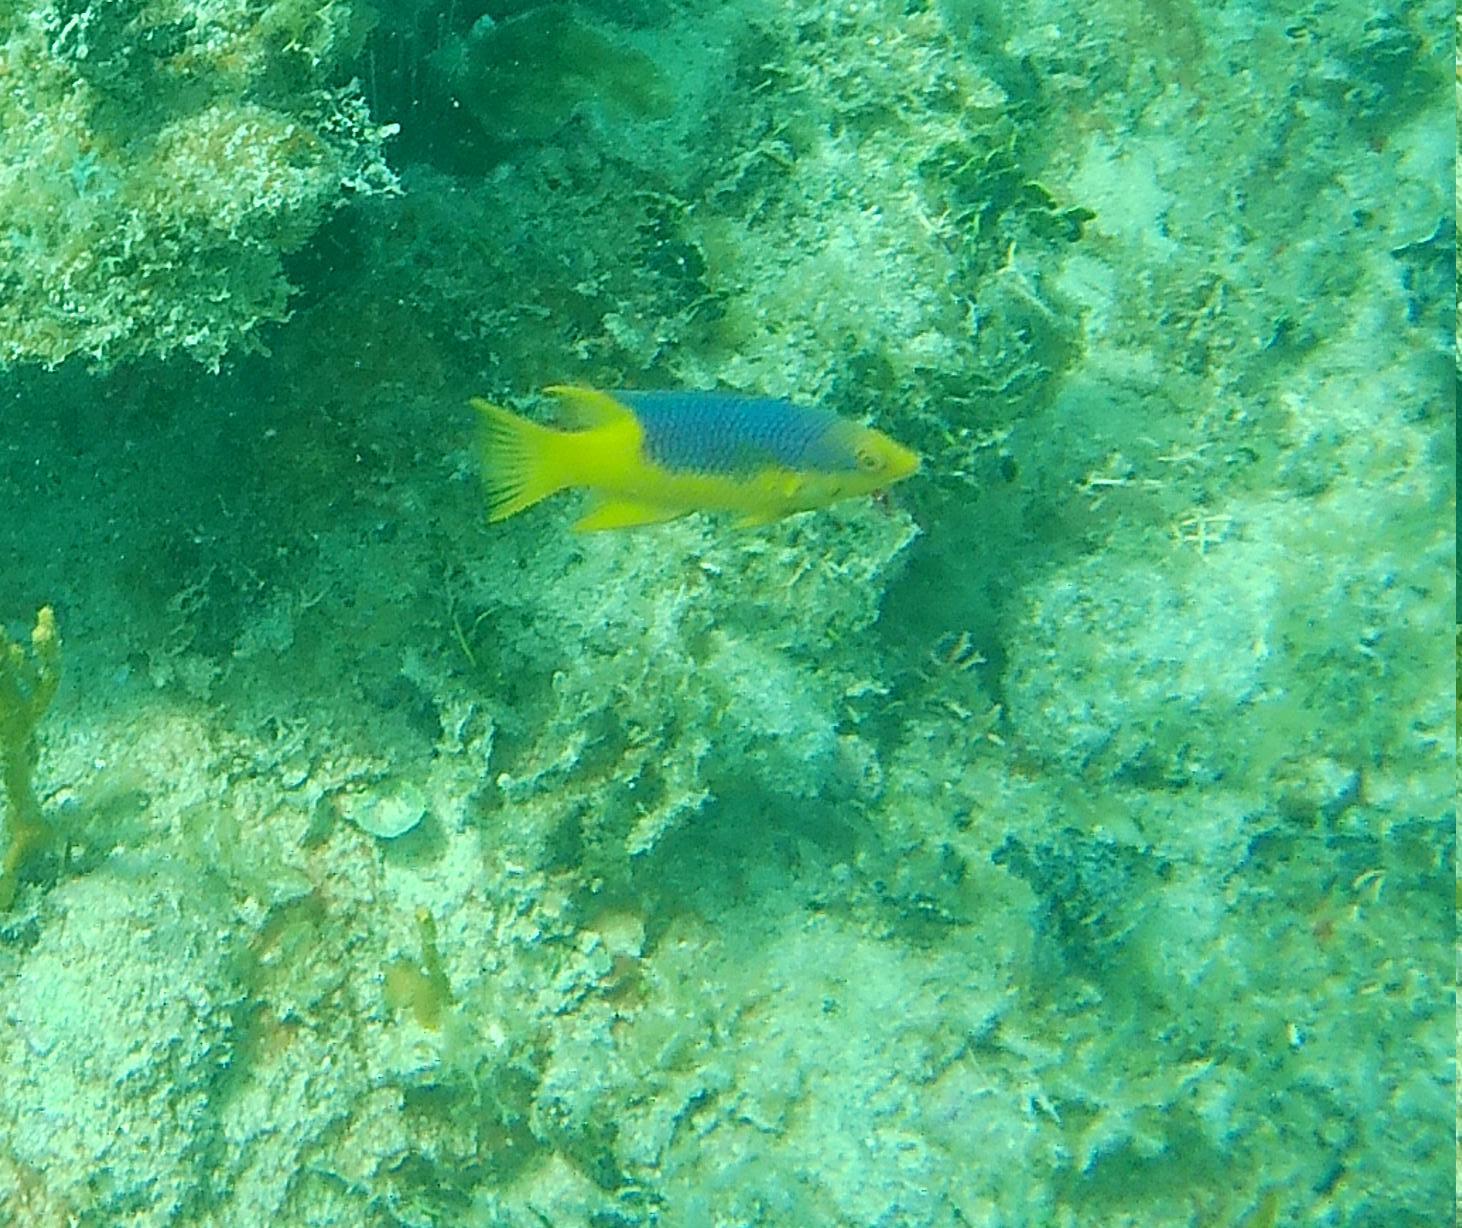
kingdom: Animalia
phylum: Chordata
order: Perciformes
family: Labridae
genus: Bodianus
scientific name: Bodianus rufus
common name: Spanish hogfish
